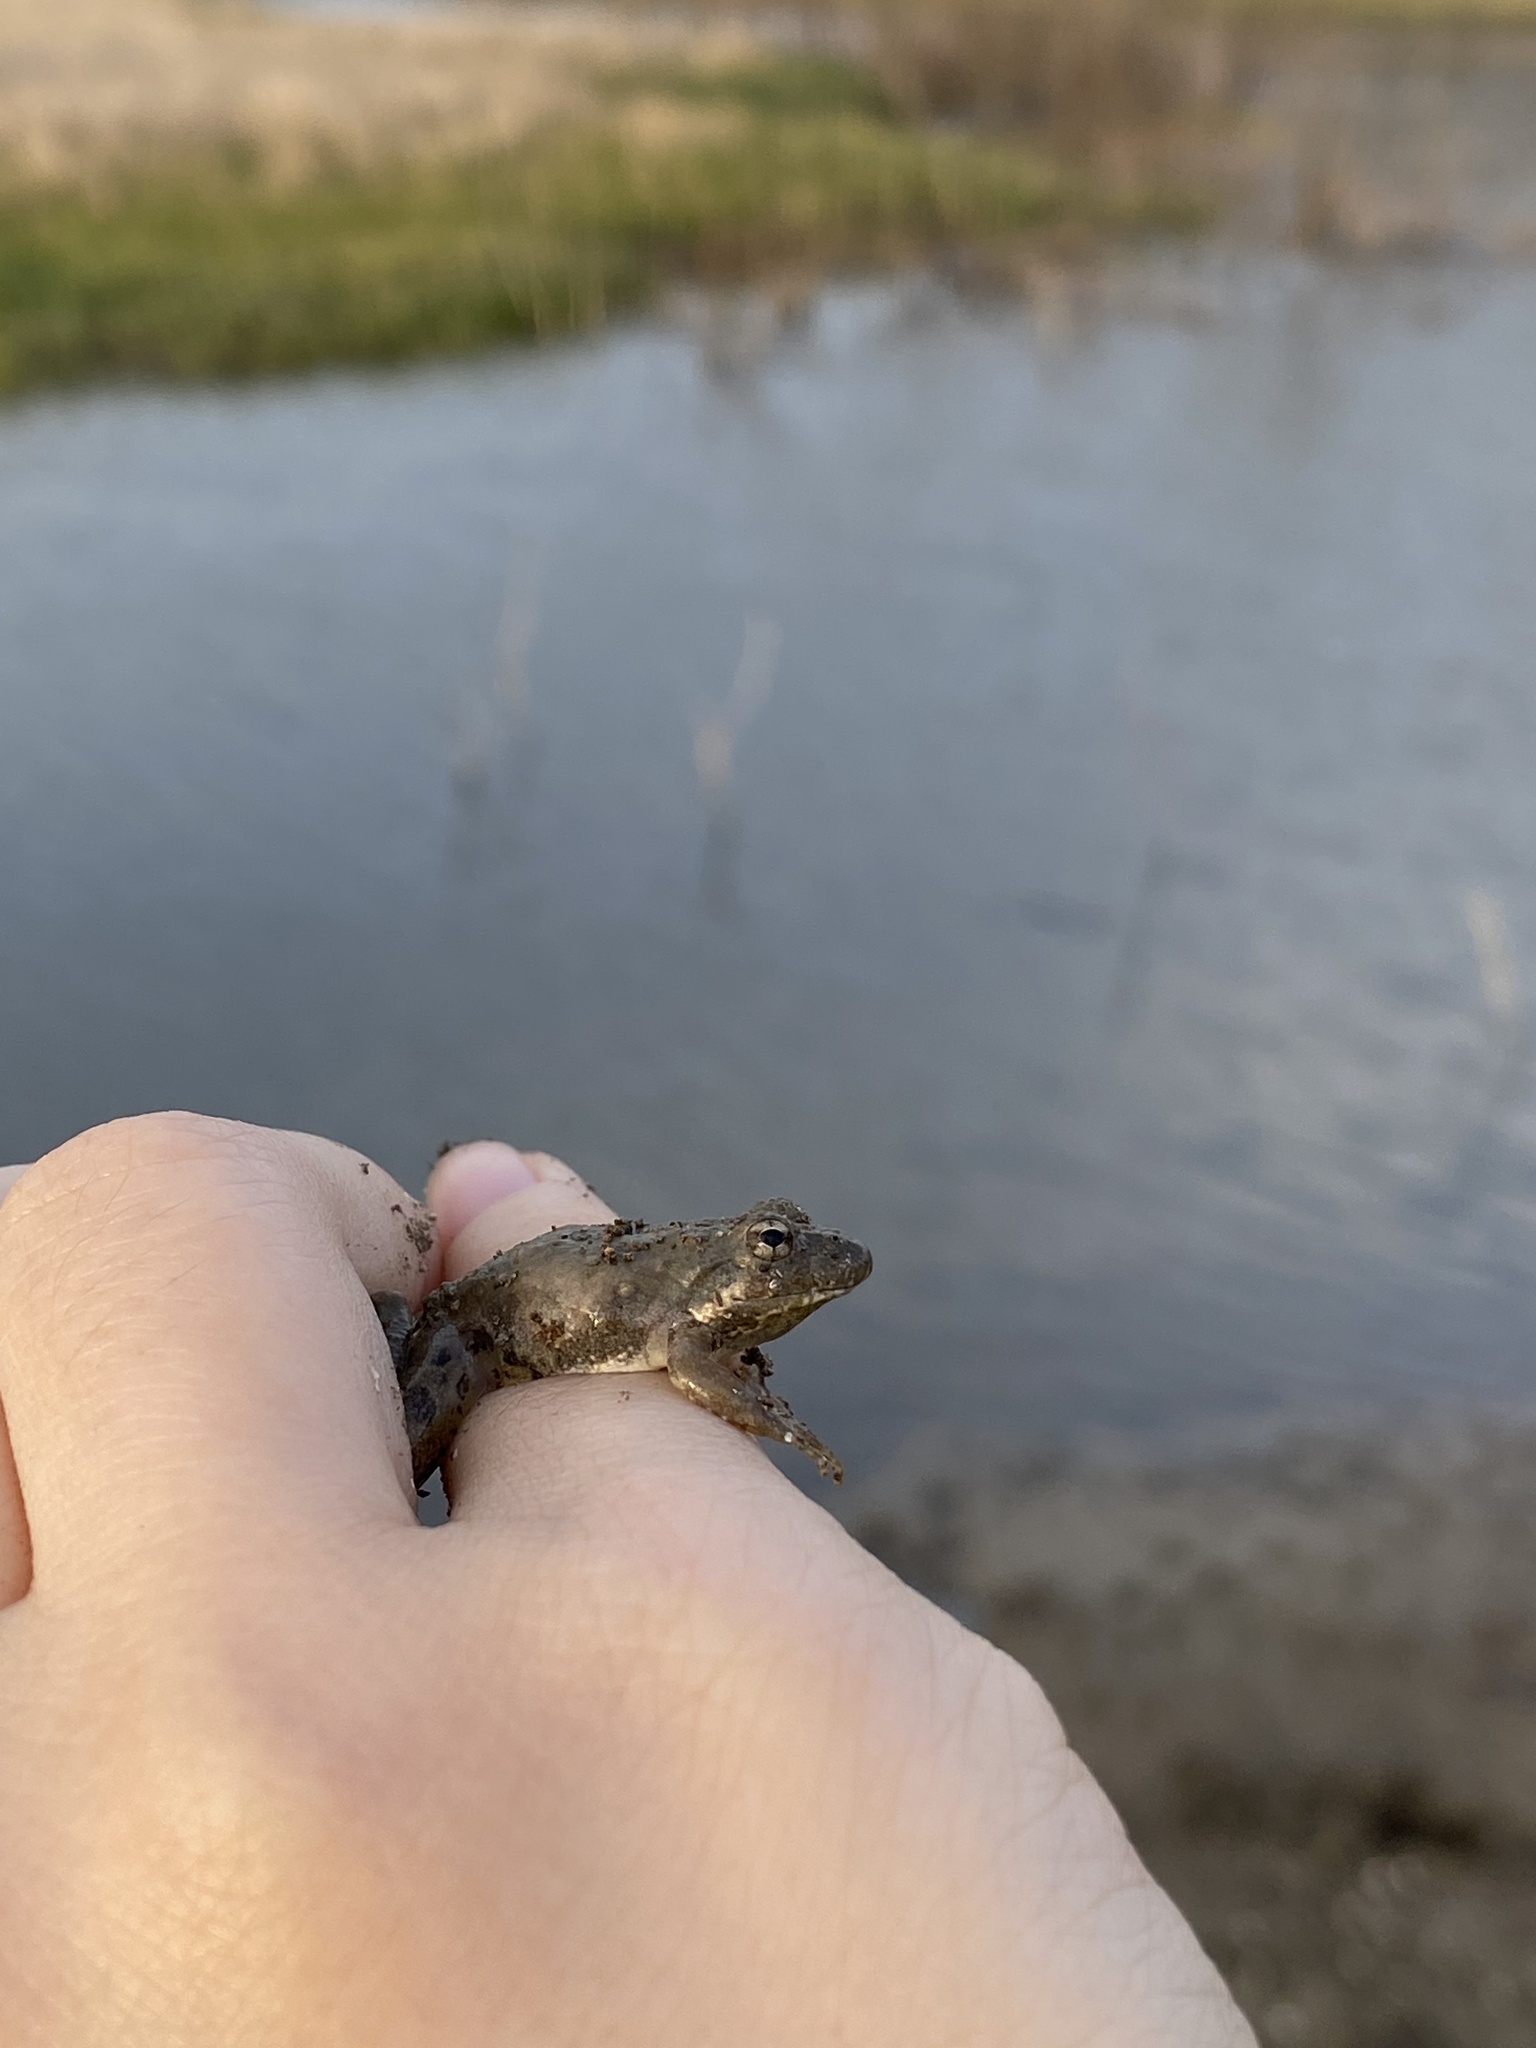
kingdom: Animalia
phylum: Chordata
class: Amphibia
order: Anura
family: Hylidae
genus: Acris
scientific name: Acris blanchardi
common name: Blanchard's cricket frog
